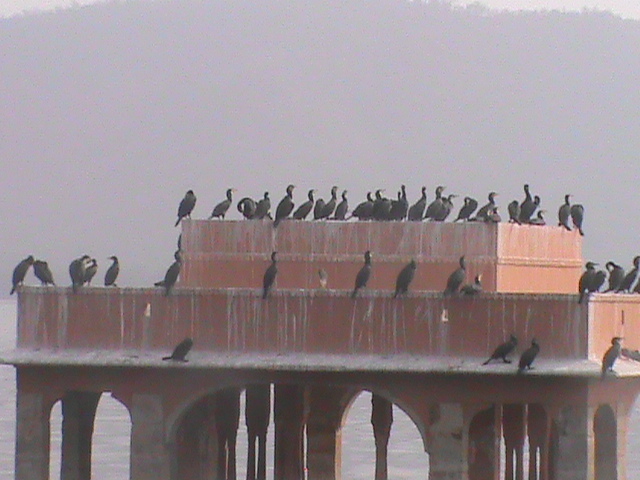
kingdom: Animalia
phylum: Chordata
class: Aves
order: Suliformes
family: Phalacrocoracidae
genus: Phalacrocorax
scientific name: Phalacrocorax carbo
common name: Great cormorant
